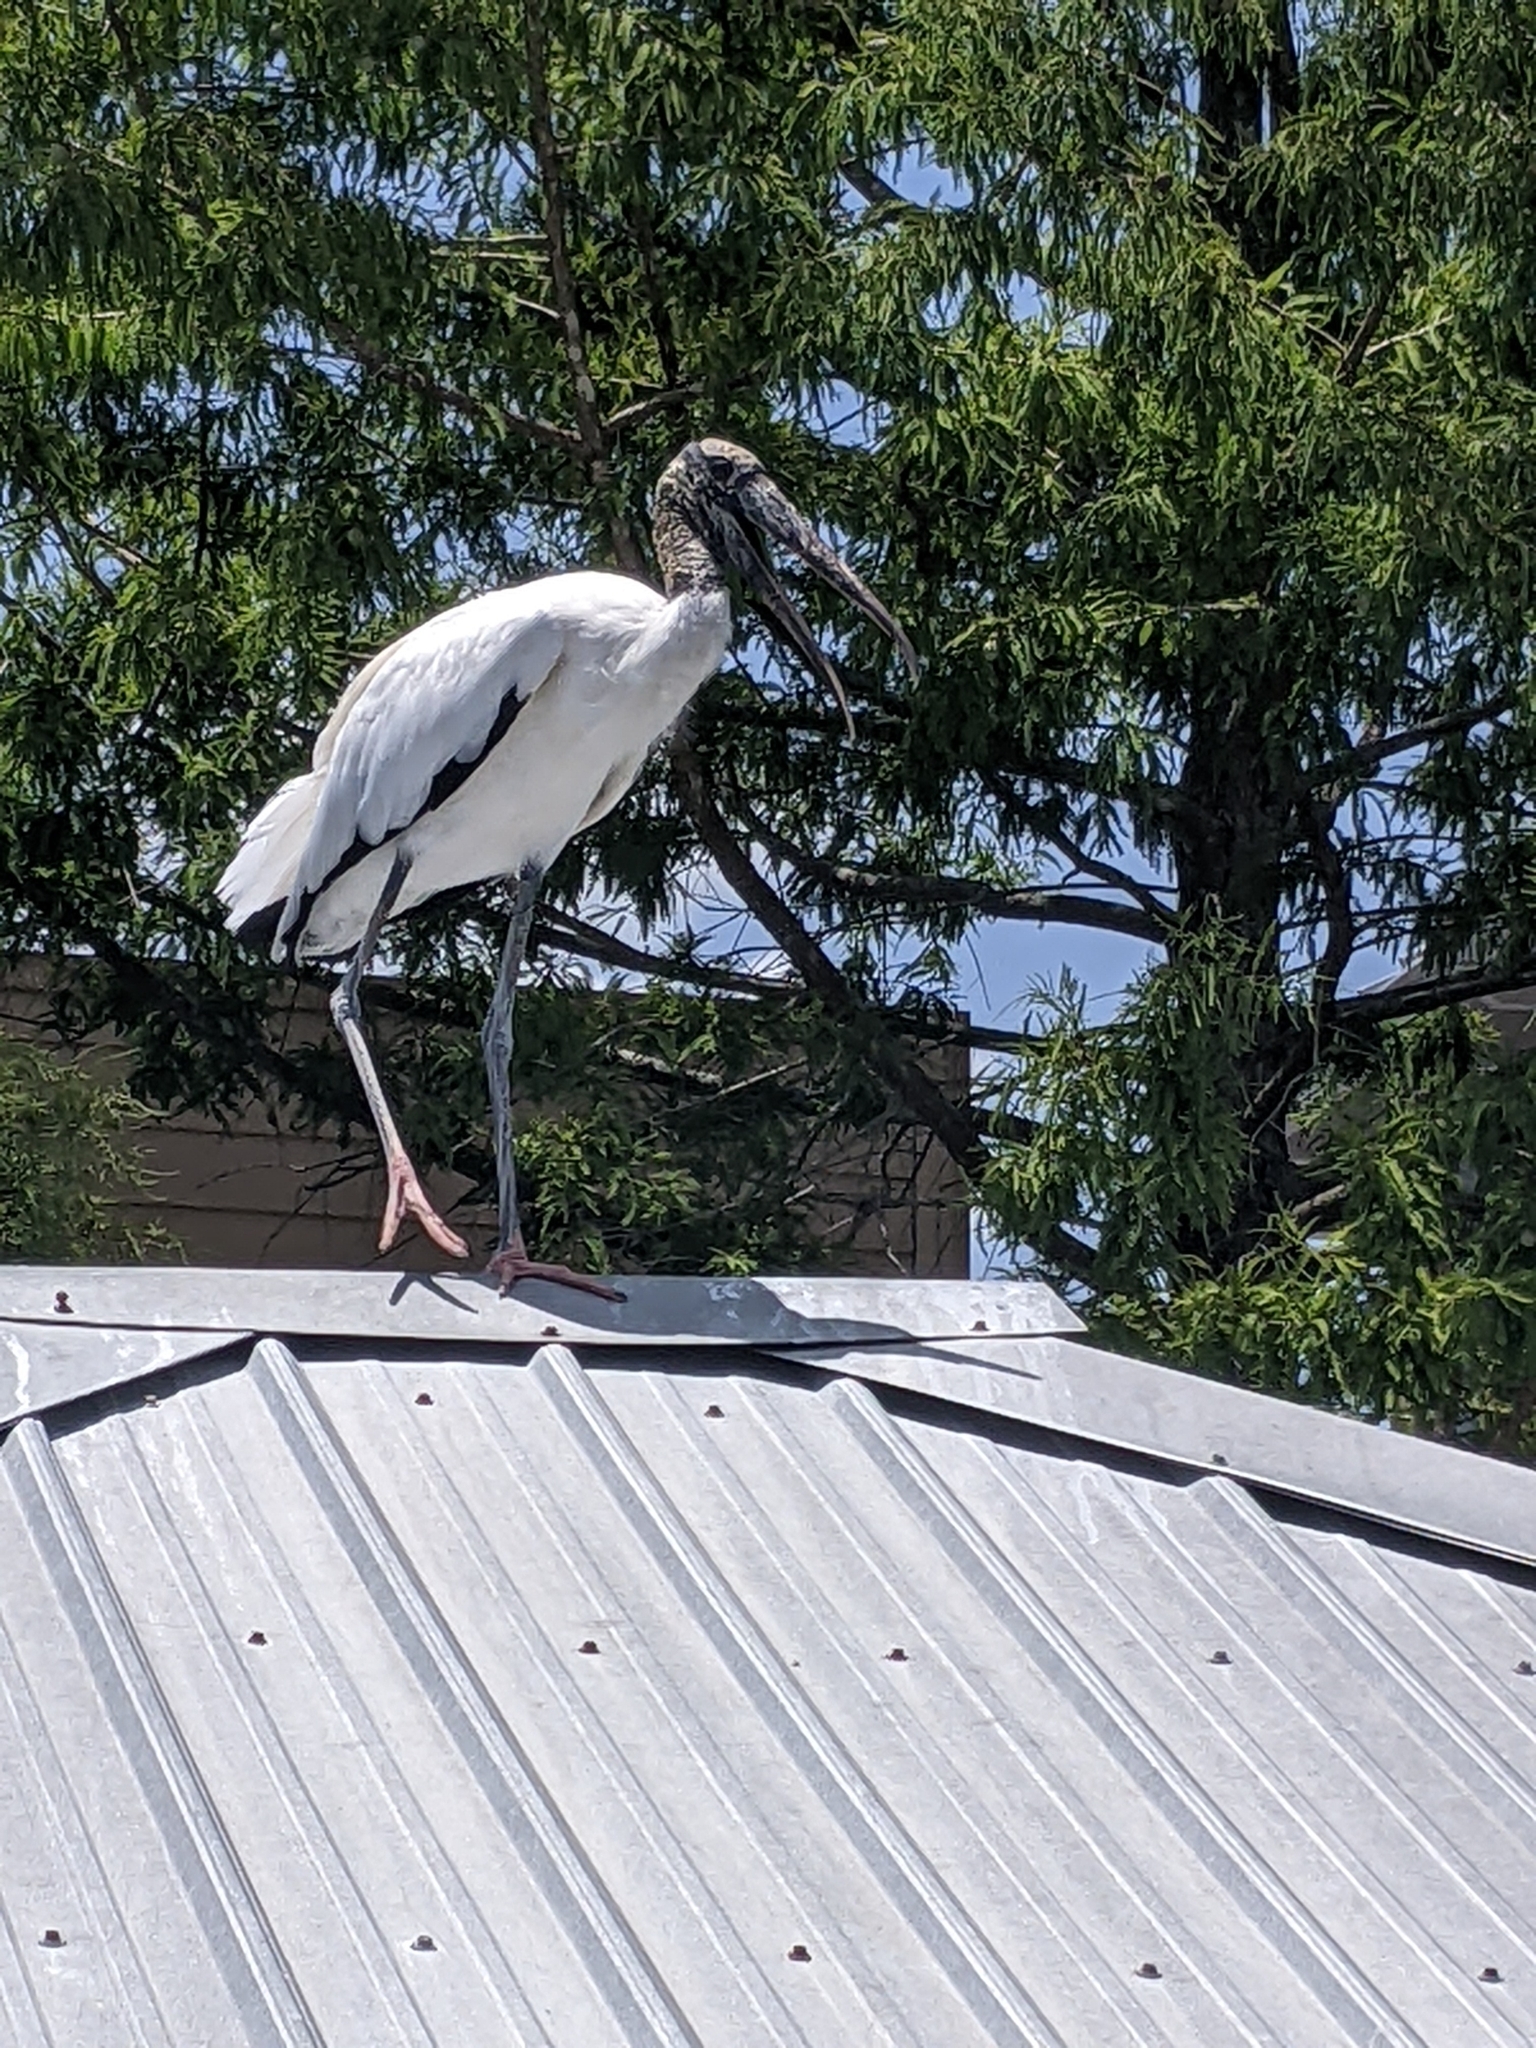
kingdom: Animalia
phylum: Chordata
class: Aves
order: Ciconiiformes
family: Ciconiidae
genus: Mycteria
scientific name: Mycteria americana
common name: Wood stork
